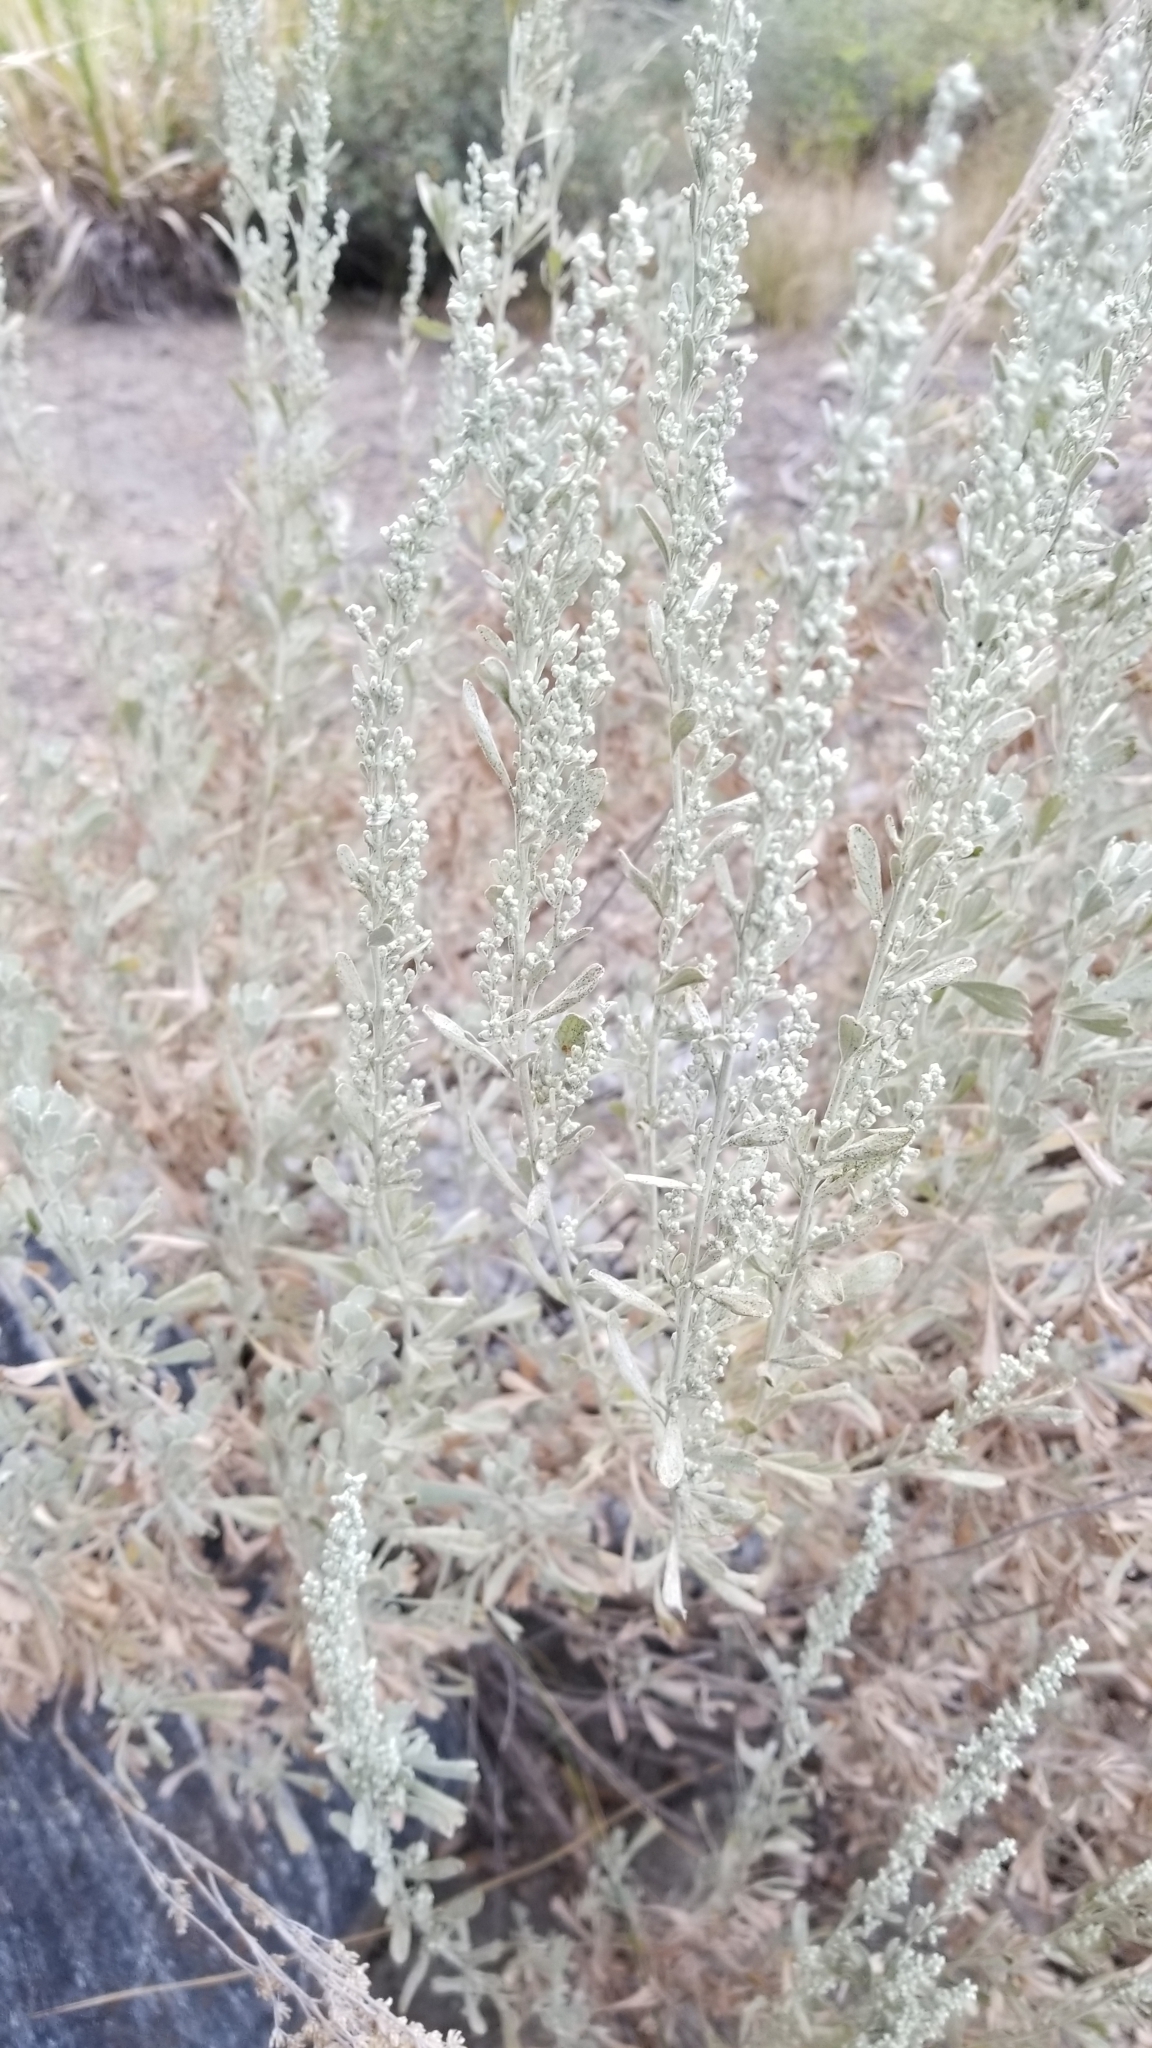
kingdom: Plantae
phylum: Tracheophyta
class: Magnoliopsida
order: Asterales
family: Asteraceae
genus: Artemisia
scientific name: Artemisia tridentata
